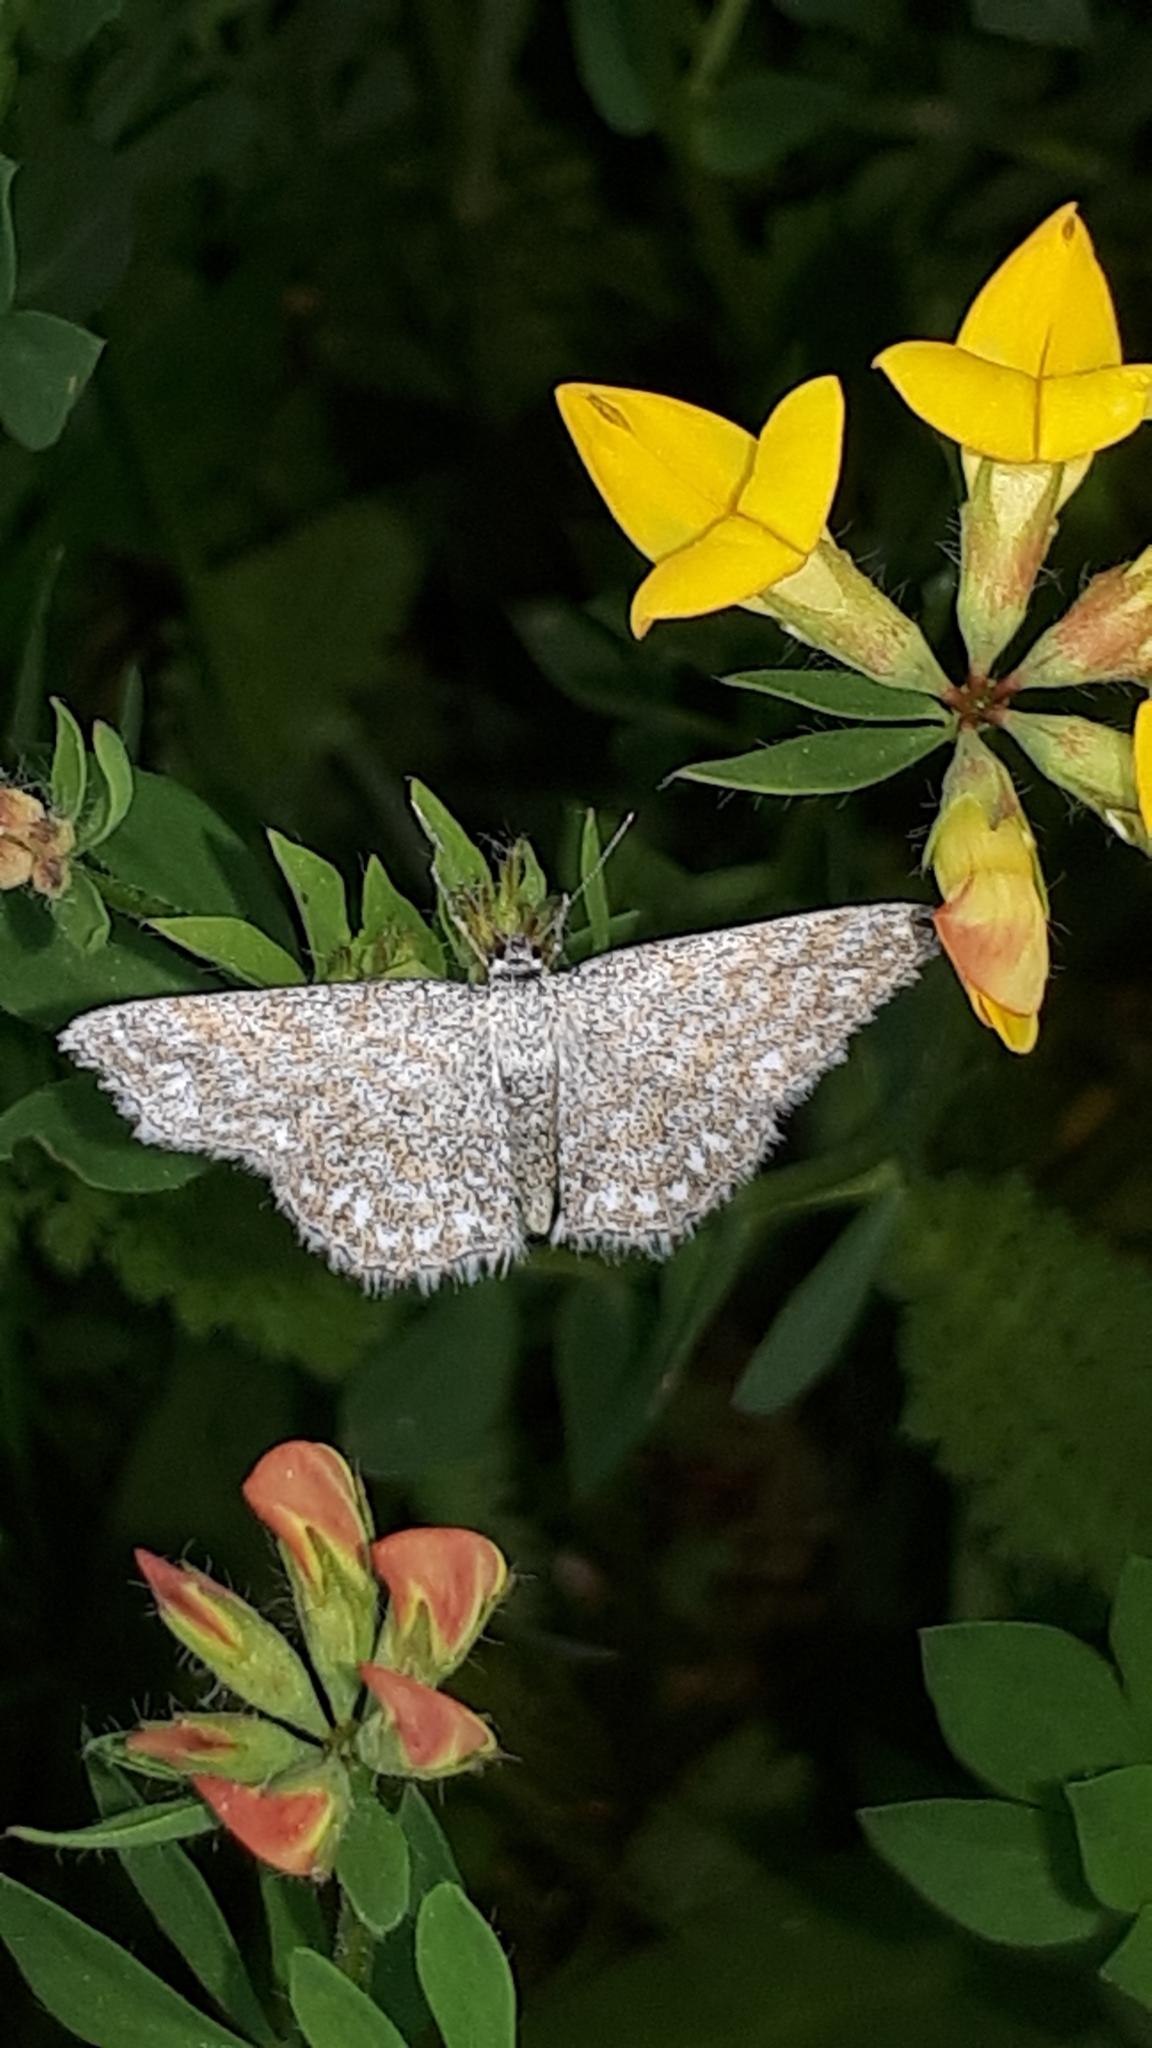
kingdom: Animalia
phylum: Arthropoda
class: Insecta
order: Lepidoptera
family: Geometridae
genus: Scopula
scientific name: Scopula immorata
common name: Lewes wave
